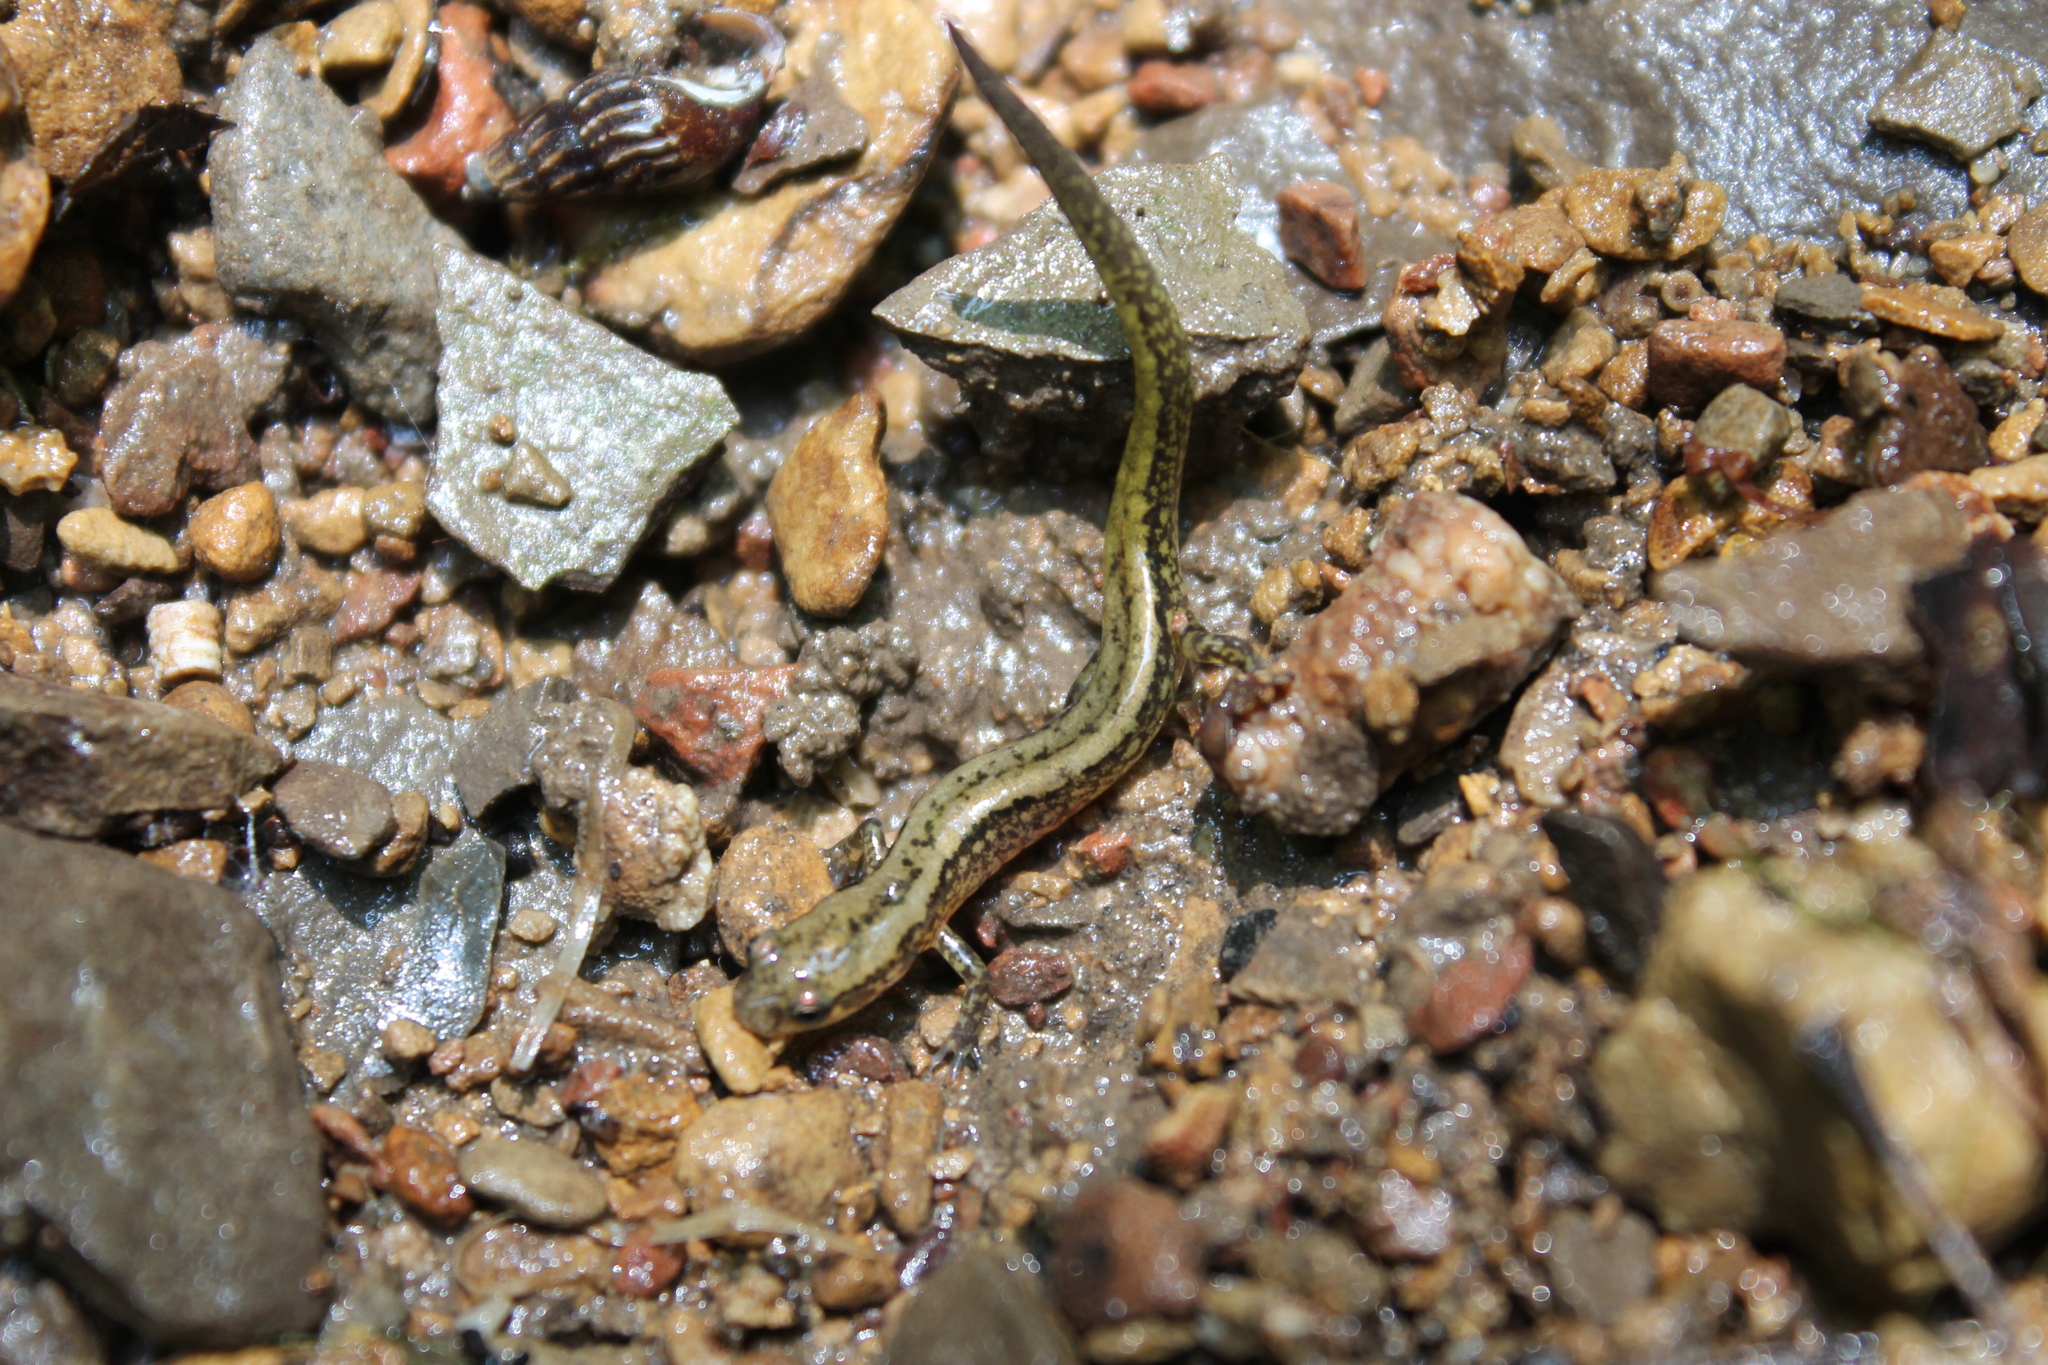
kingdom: Animalia
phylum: Chordata
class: Amphibia
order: Caudata
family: Plethodontidae
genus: Eurycea
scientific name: Eurycea cirrigera
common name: Southern two-lined salamander
